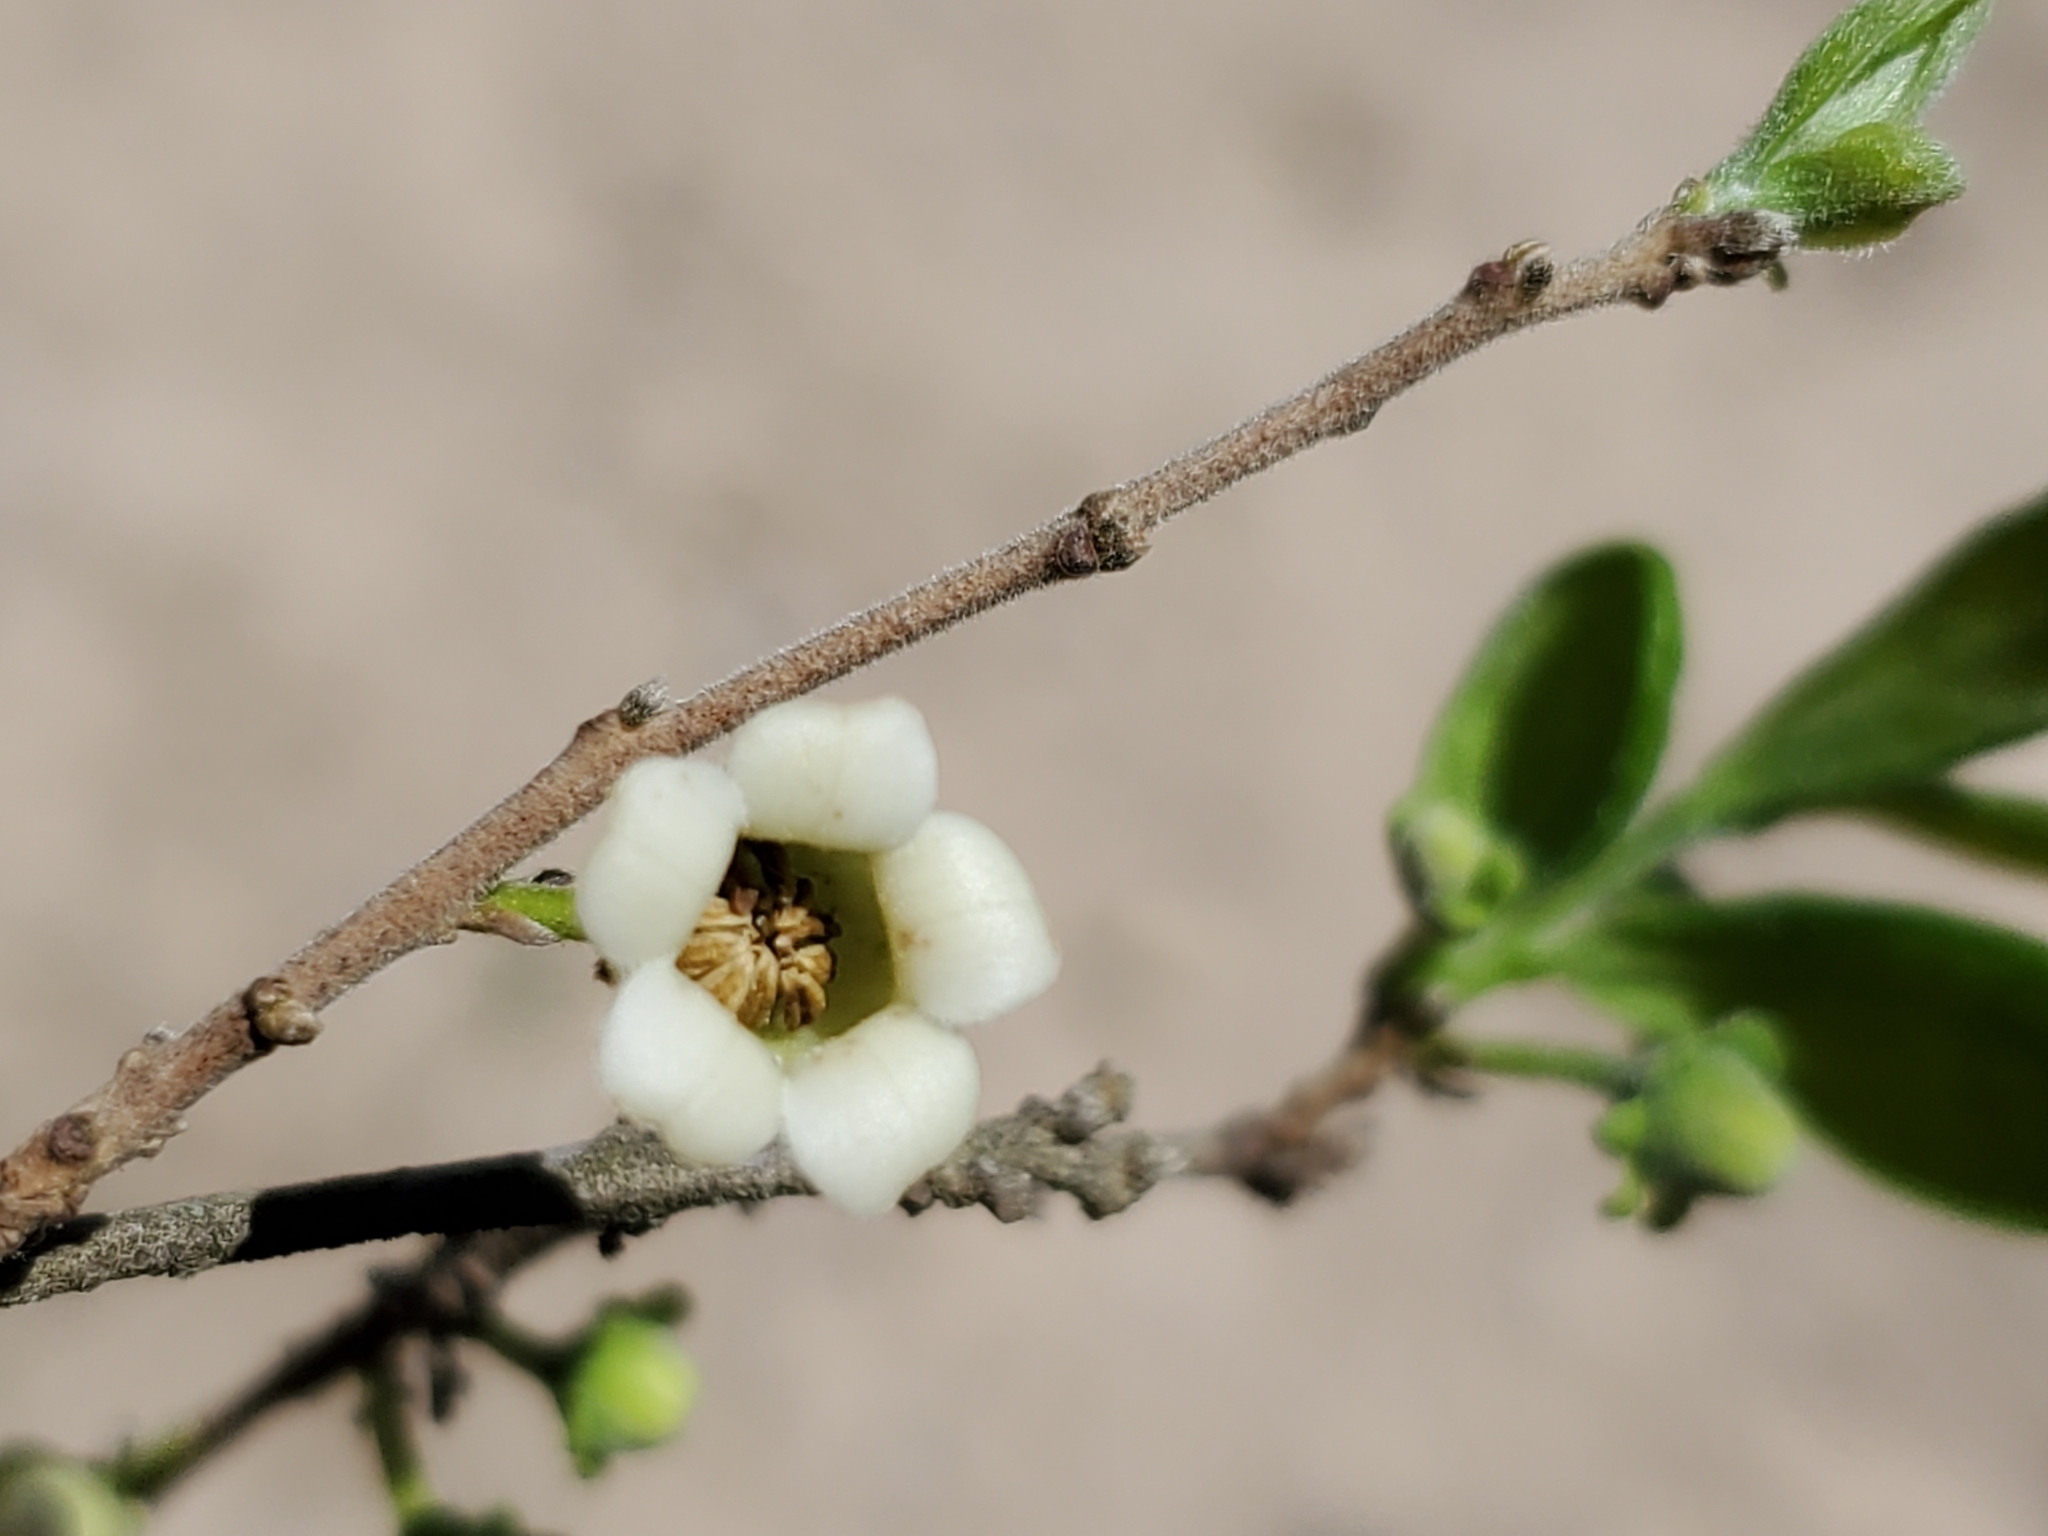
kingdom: Plantae
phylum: Tracheophyta
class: Magnoliopsida
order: Ericales
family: Ebenaceae
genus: Diospyros
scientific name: Diospyros texana
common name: Texas persimmon
